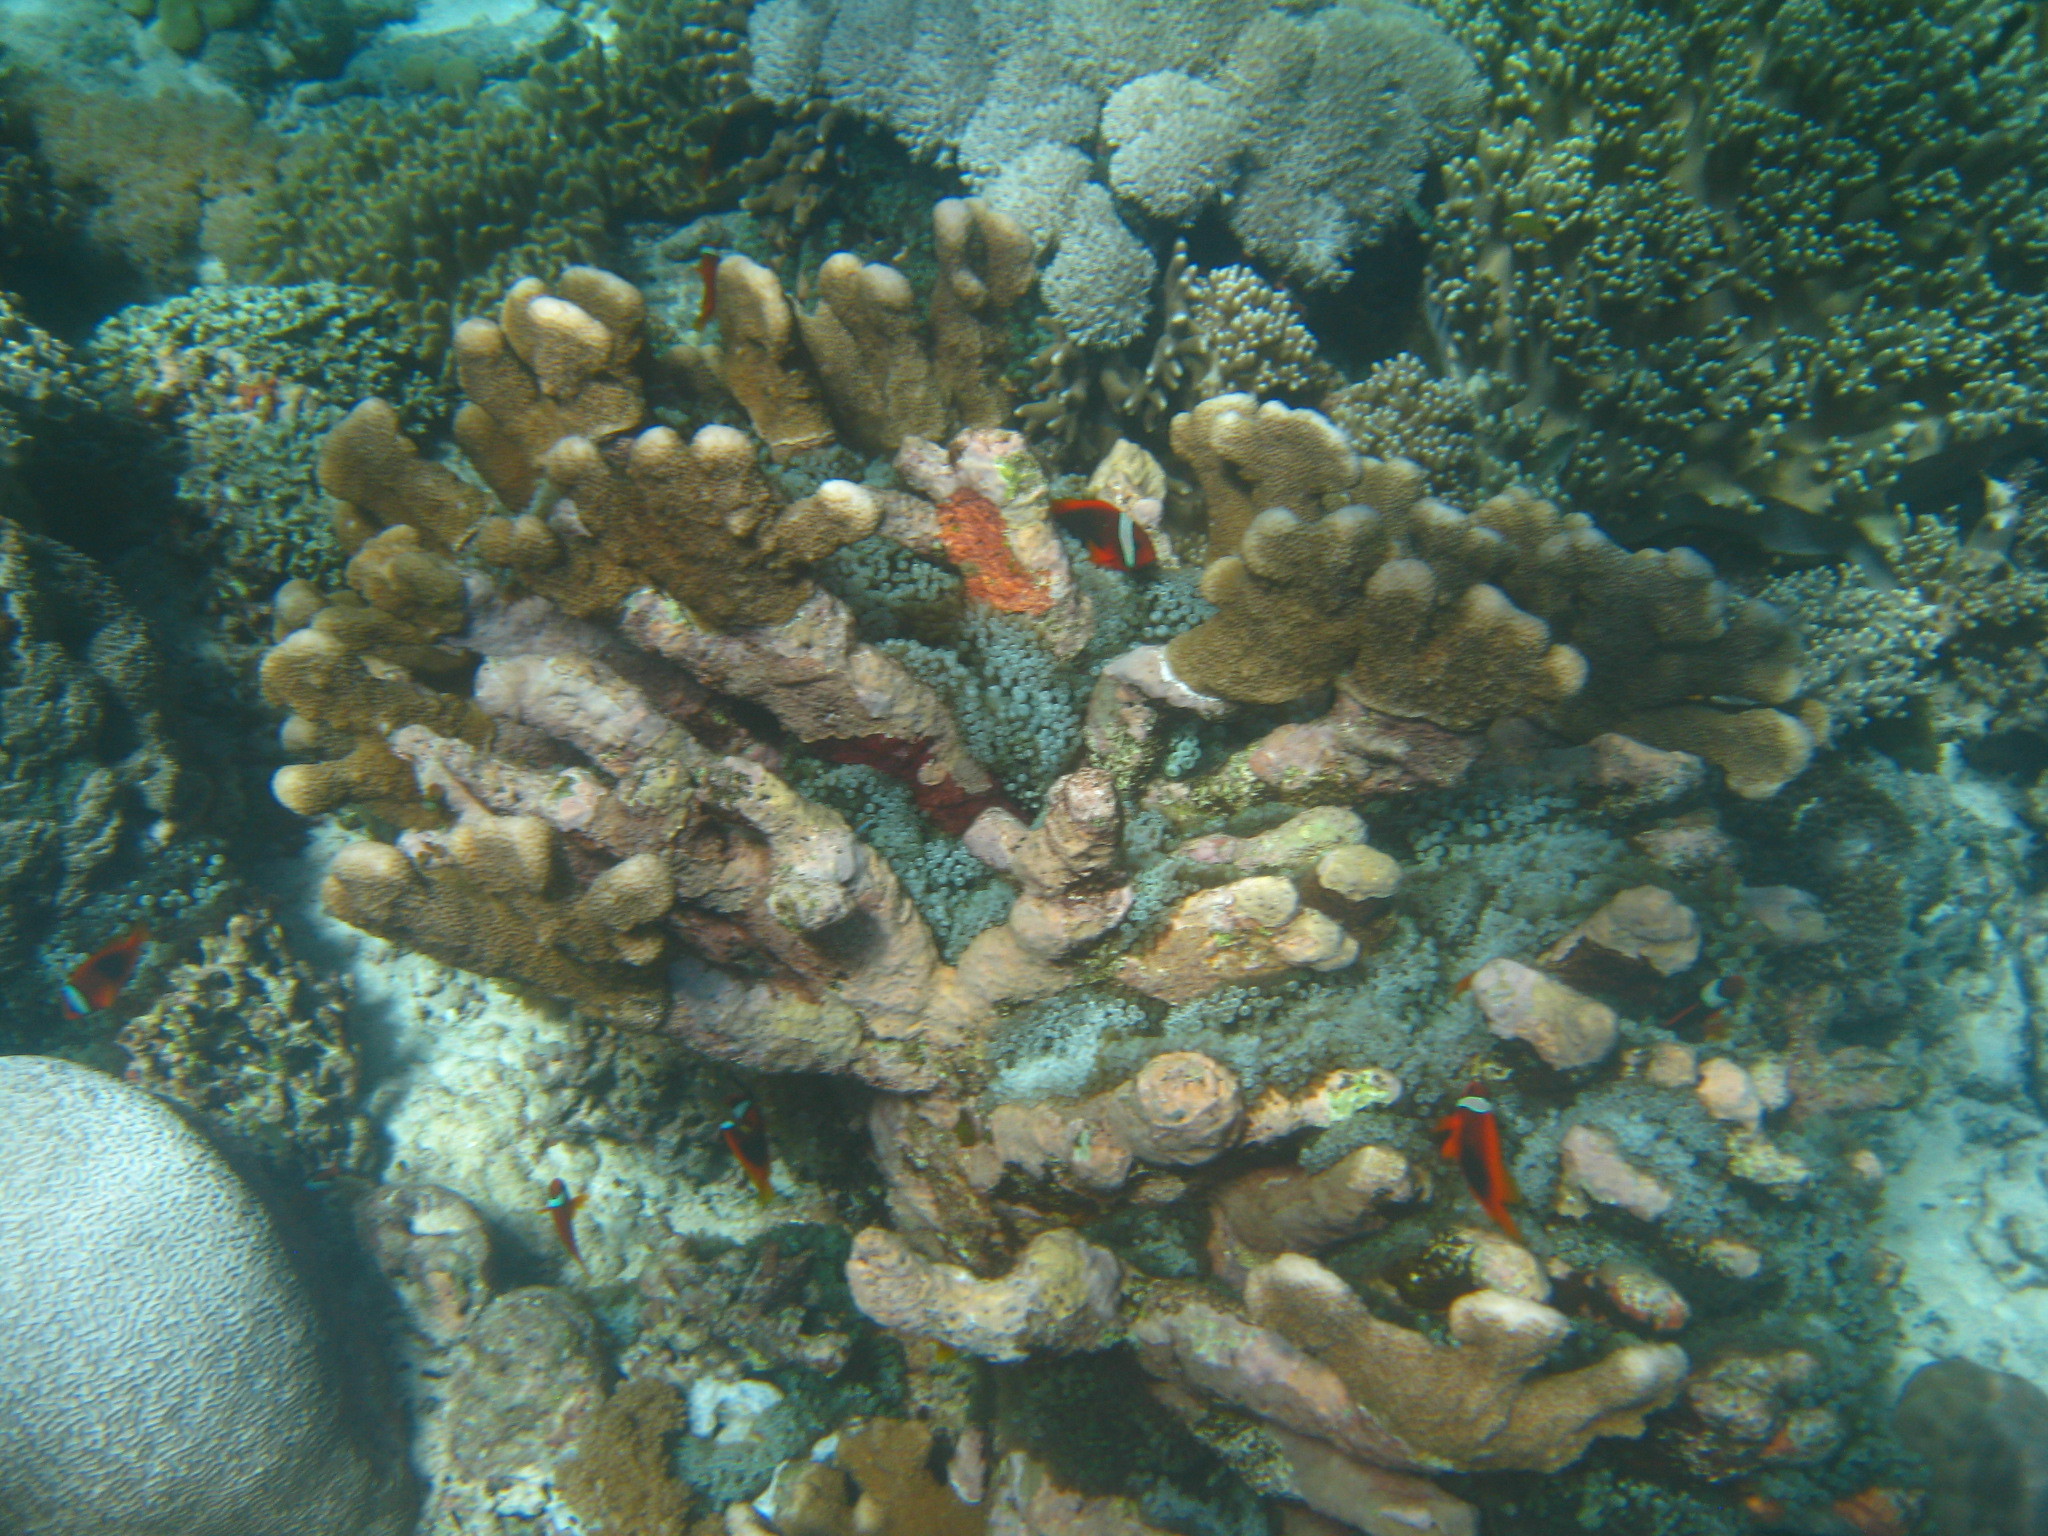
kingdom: Animalia
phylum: Cnidaria
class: Anthozoa
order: Scleractinia
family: Acroporidae
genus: Isopora
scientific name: Isopora palifera
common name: Catch bowl coral
